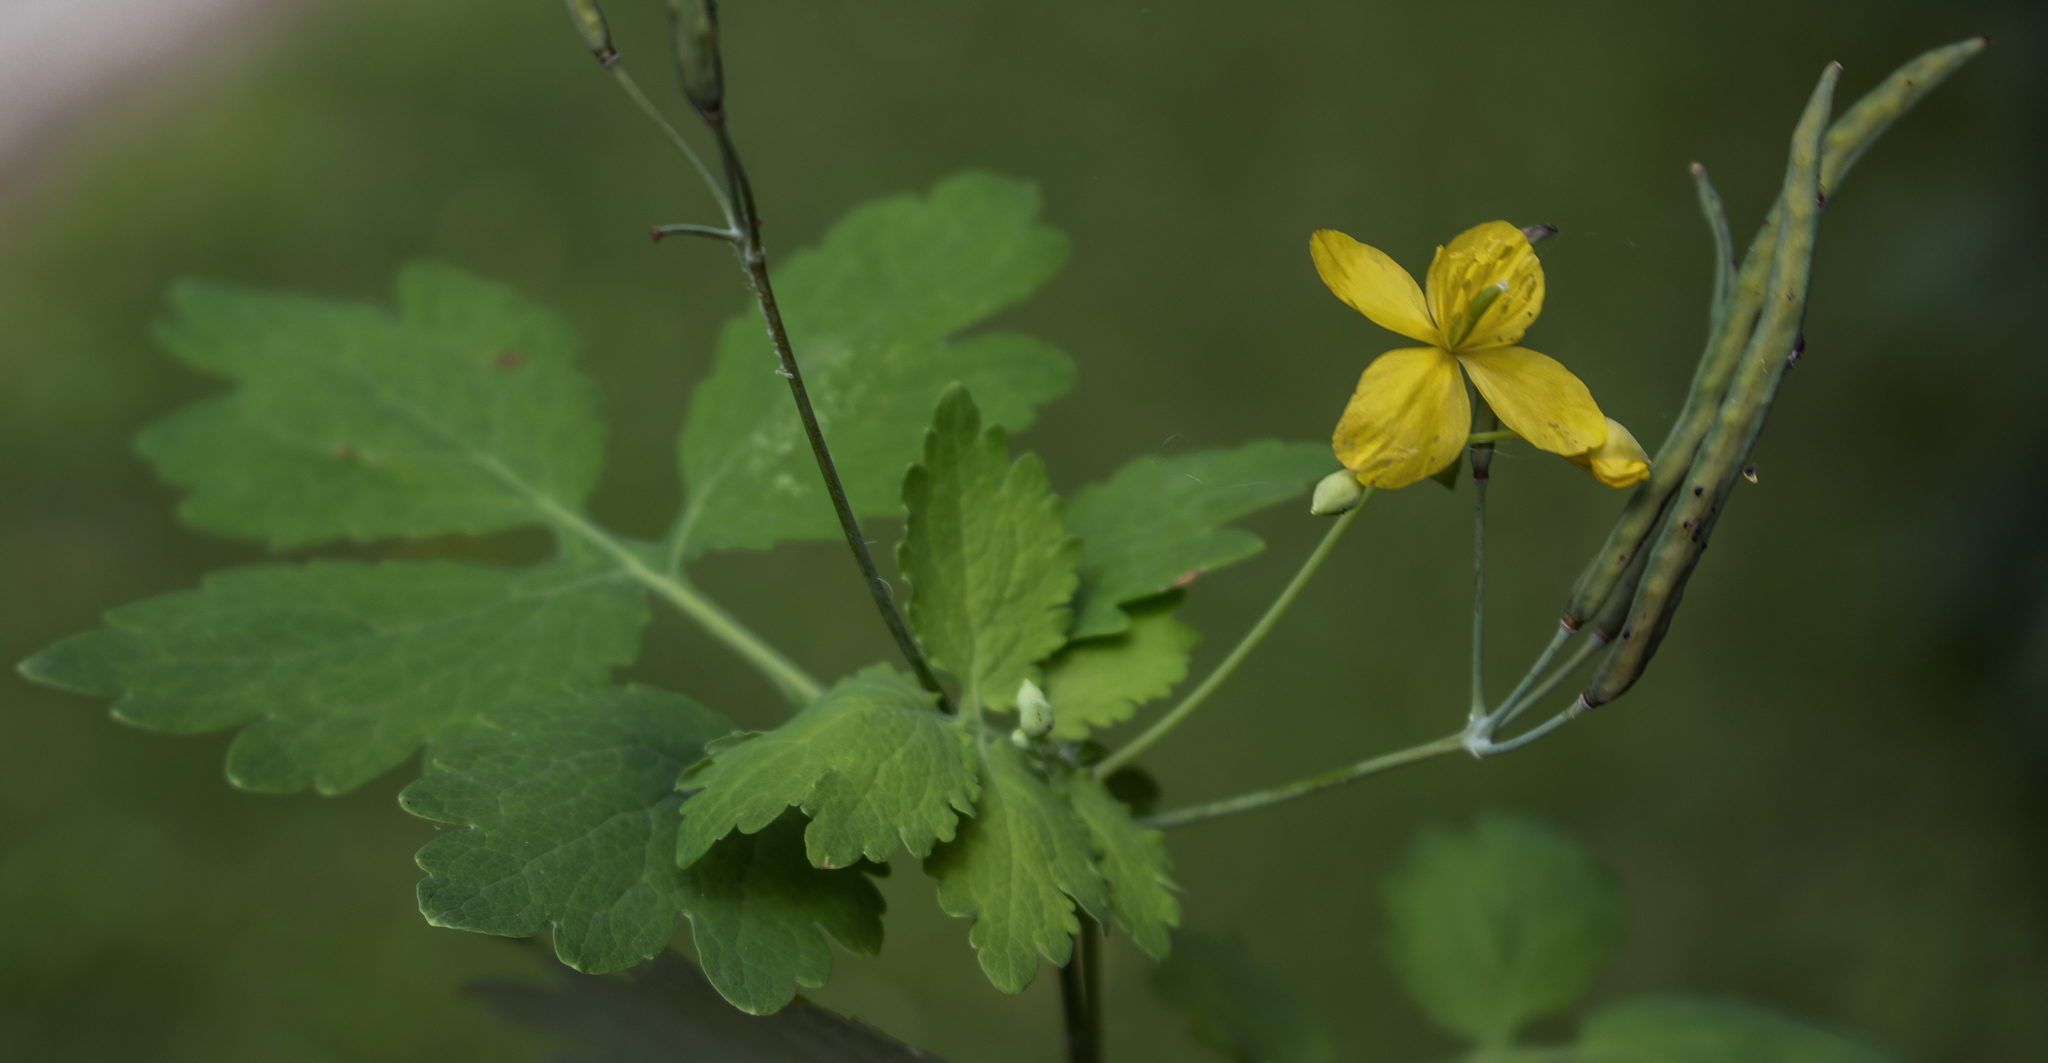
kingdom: Plantae
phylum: Tracheophyta
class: Magnoliopsida
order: Ranunculales
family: Papaveraceae
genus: Chelidonium
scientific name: Chelidonium majus
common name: Greater celandine
